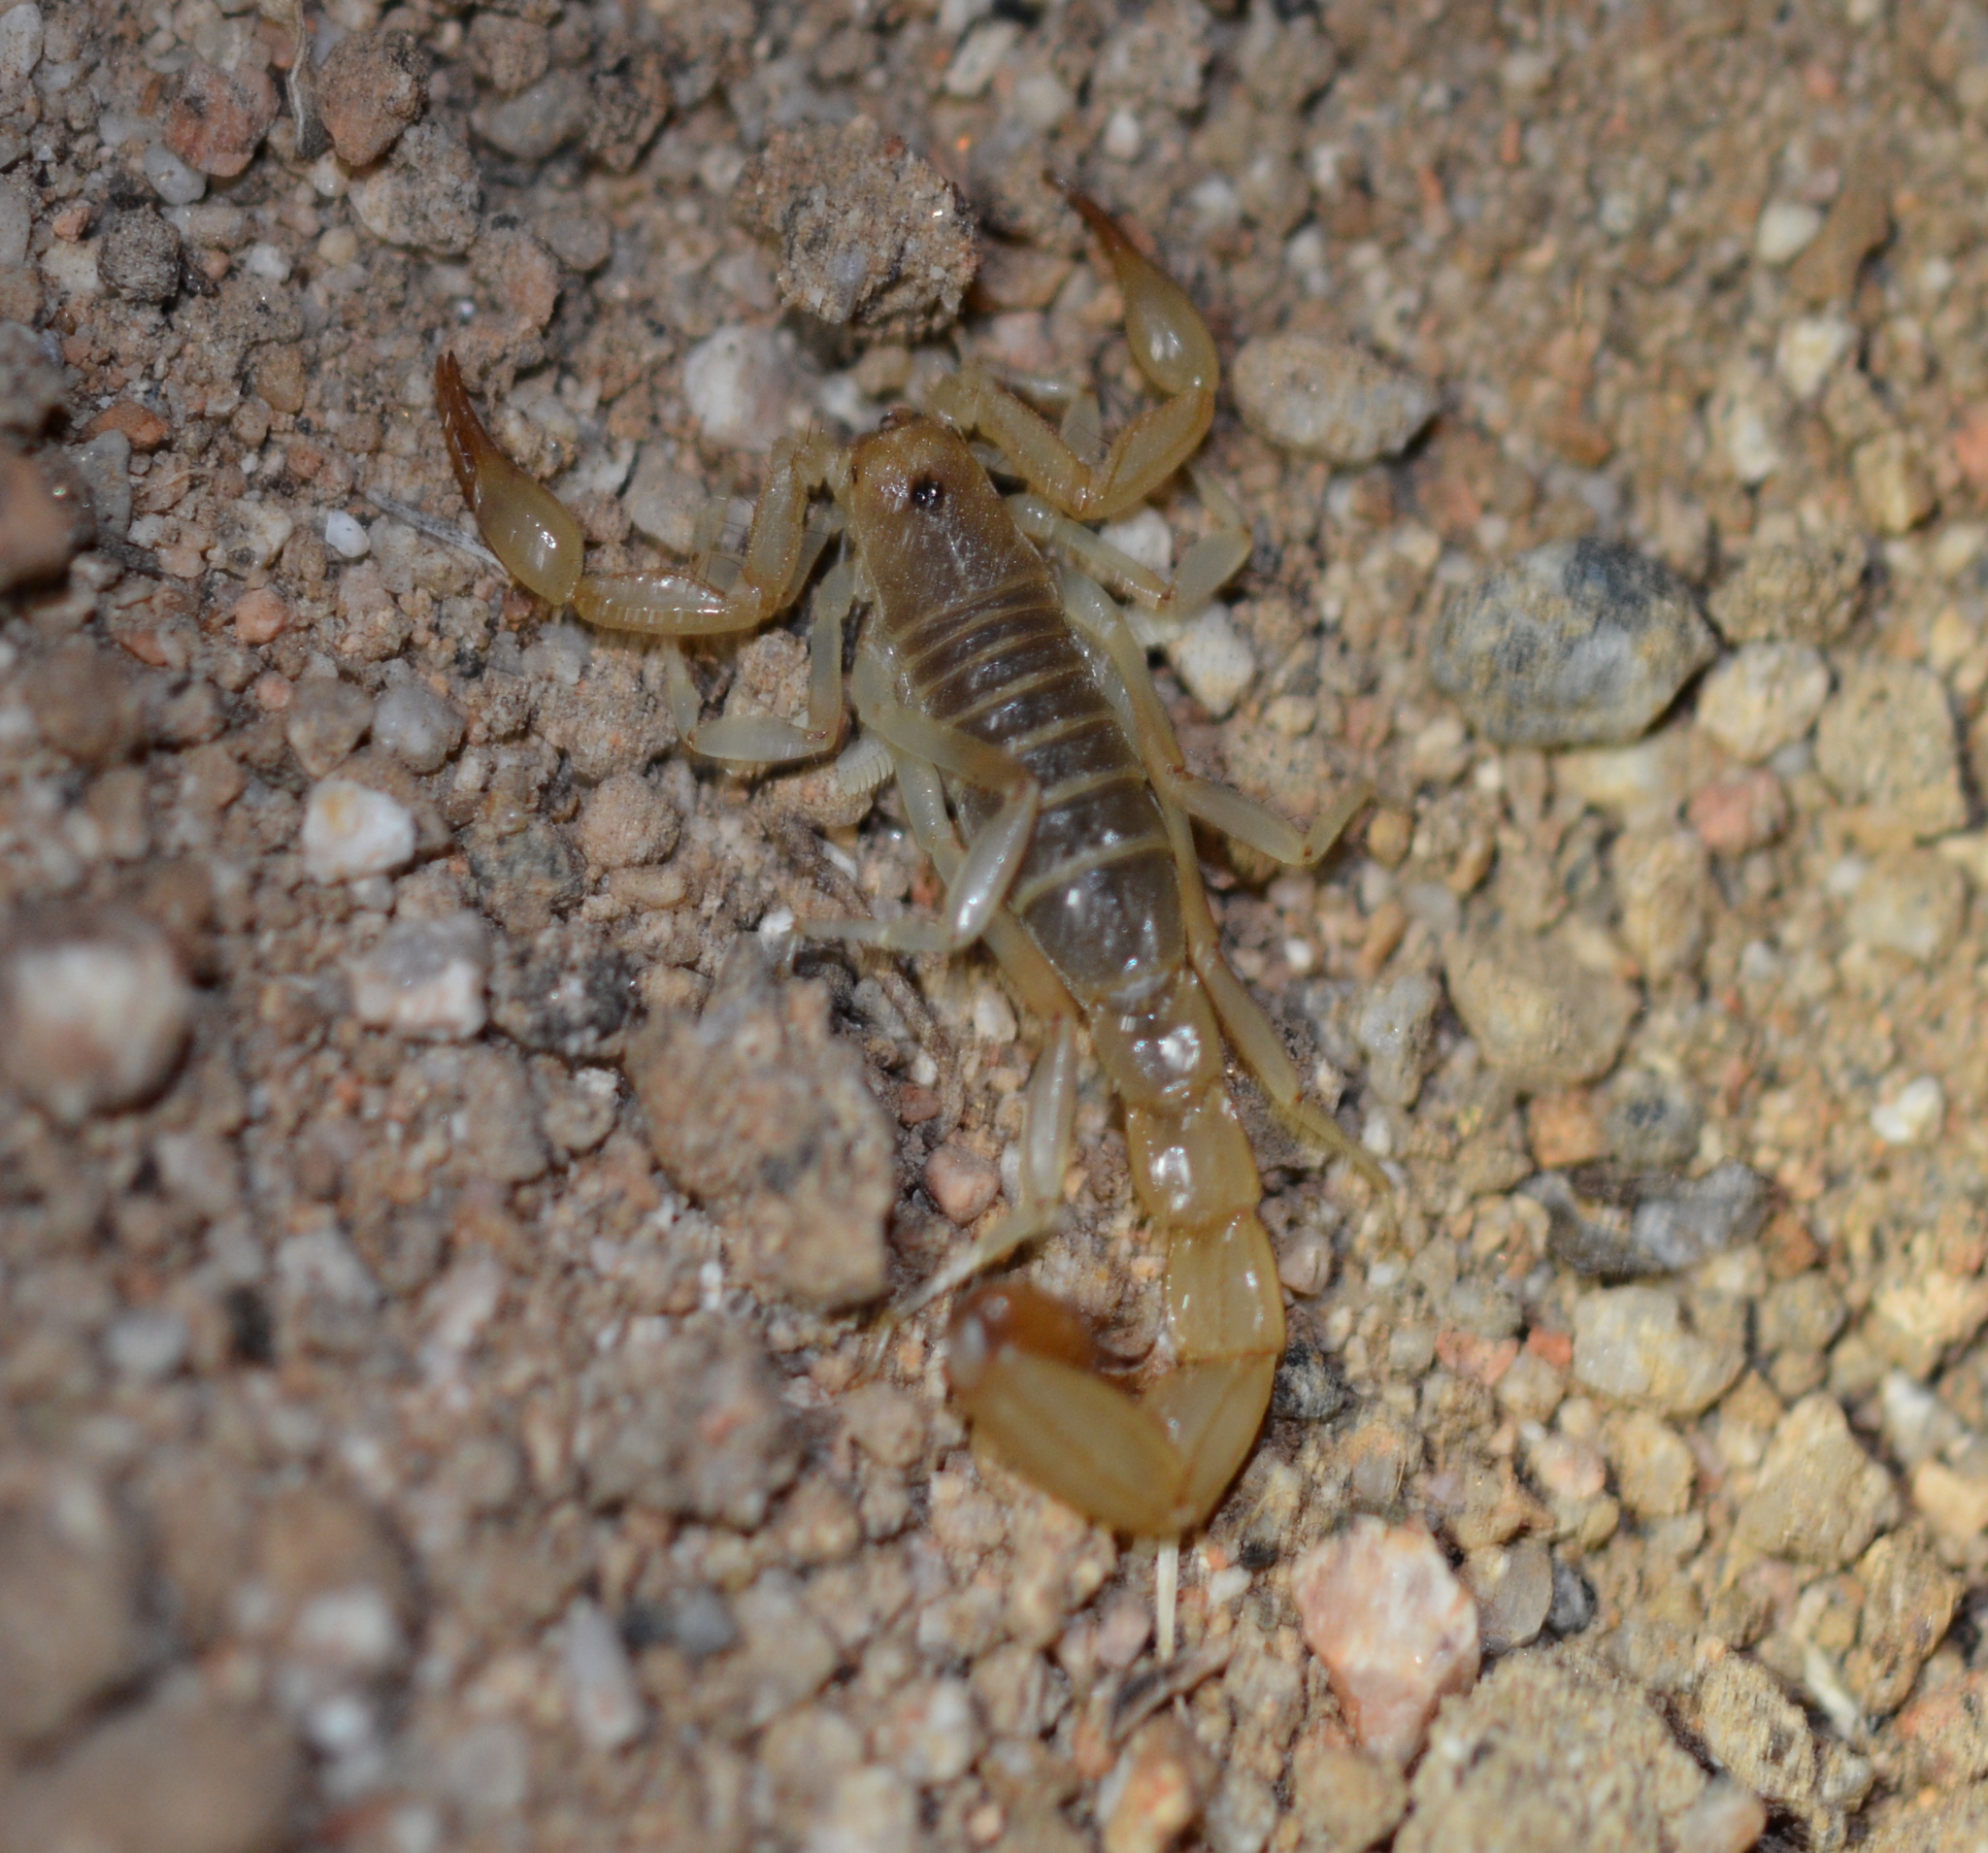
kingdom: Animalia
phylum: Arthropoda
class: Arachnida
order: Scorpiones
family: Vaejovidae
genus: Paravaejovis
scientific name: Paravaejovis diazi
